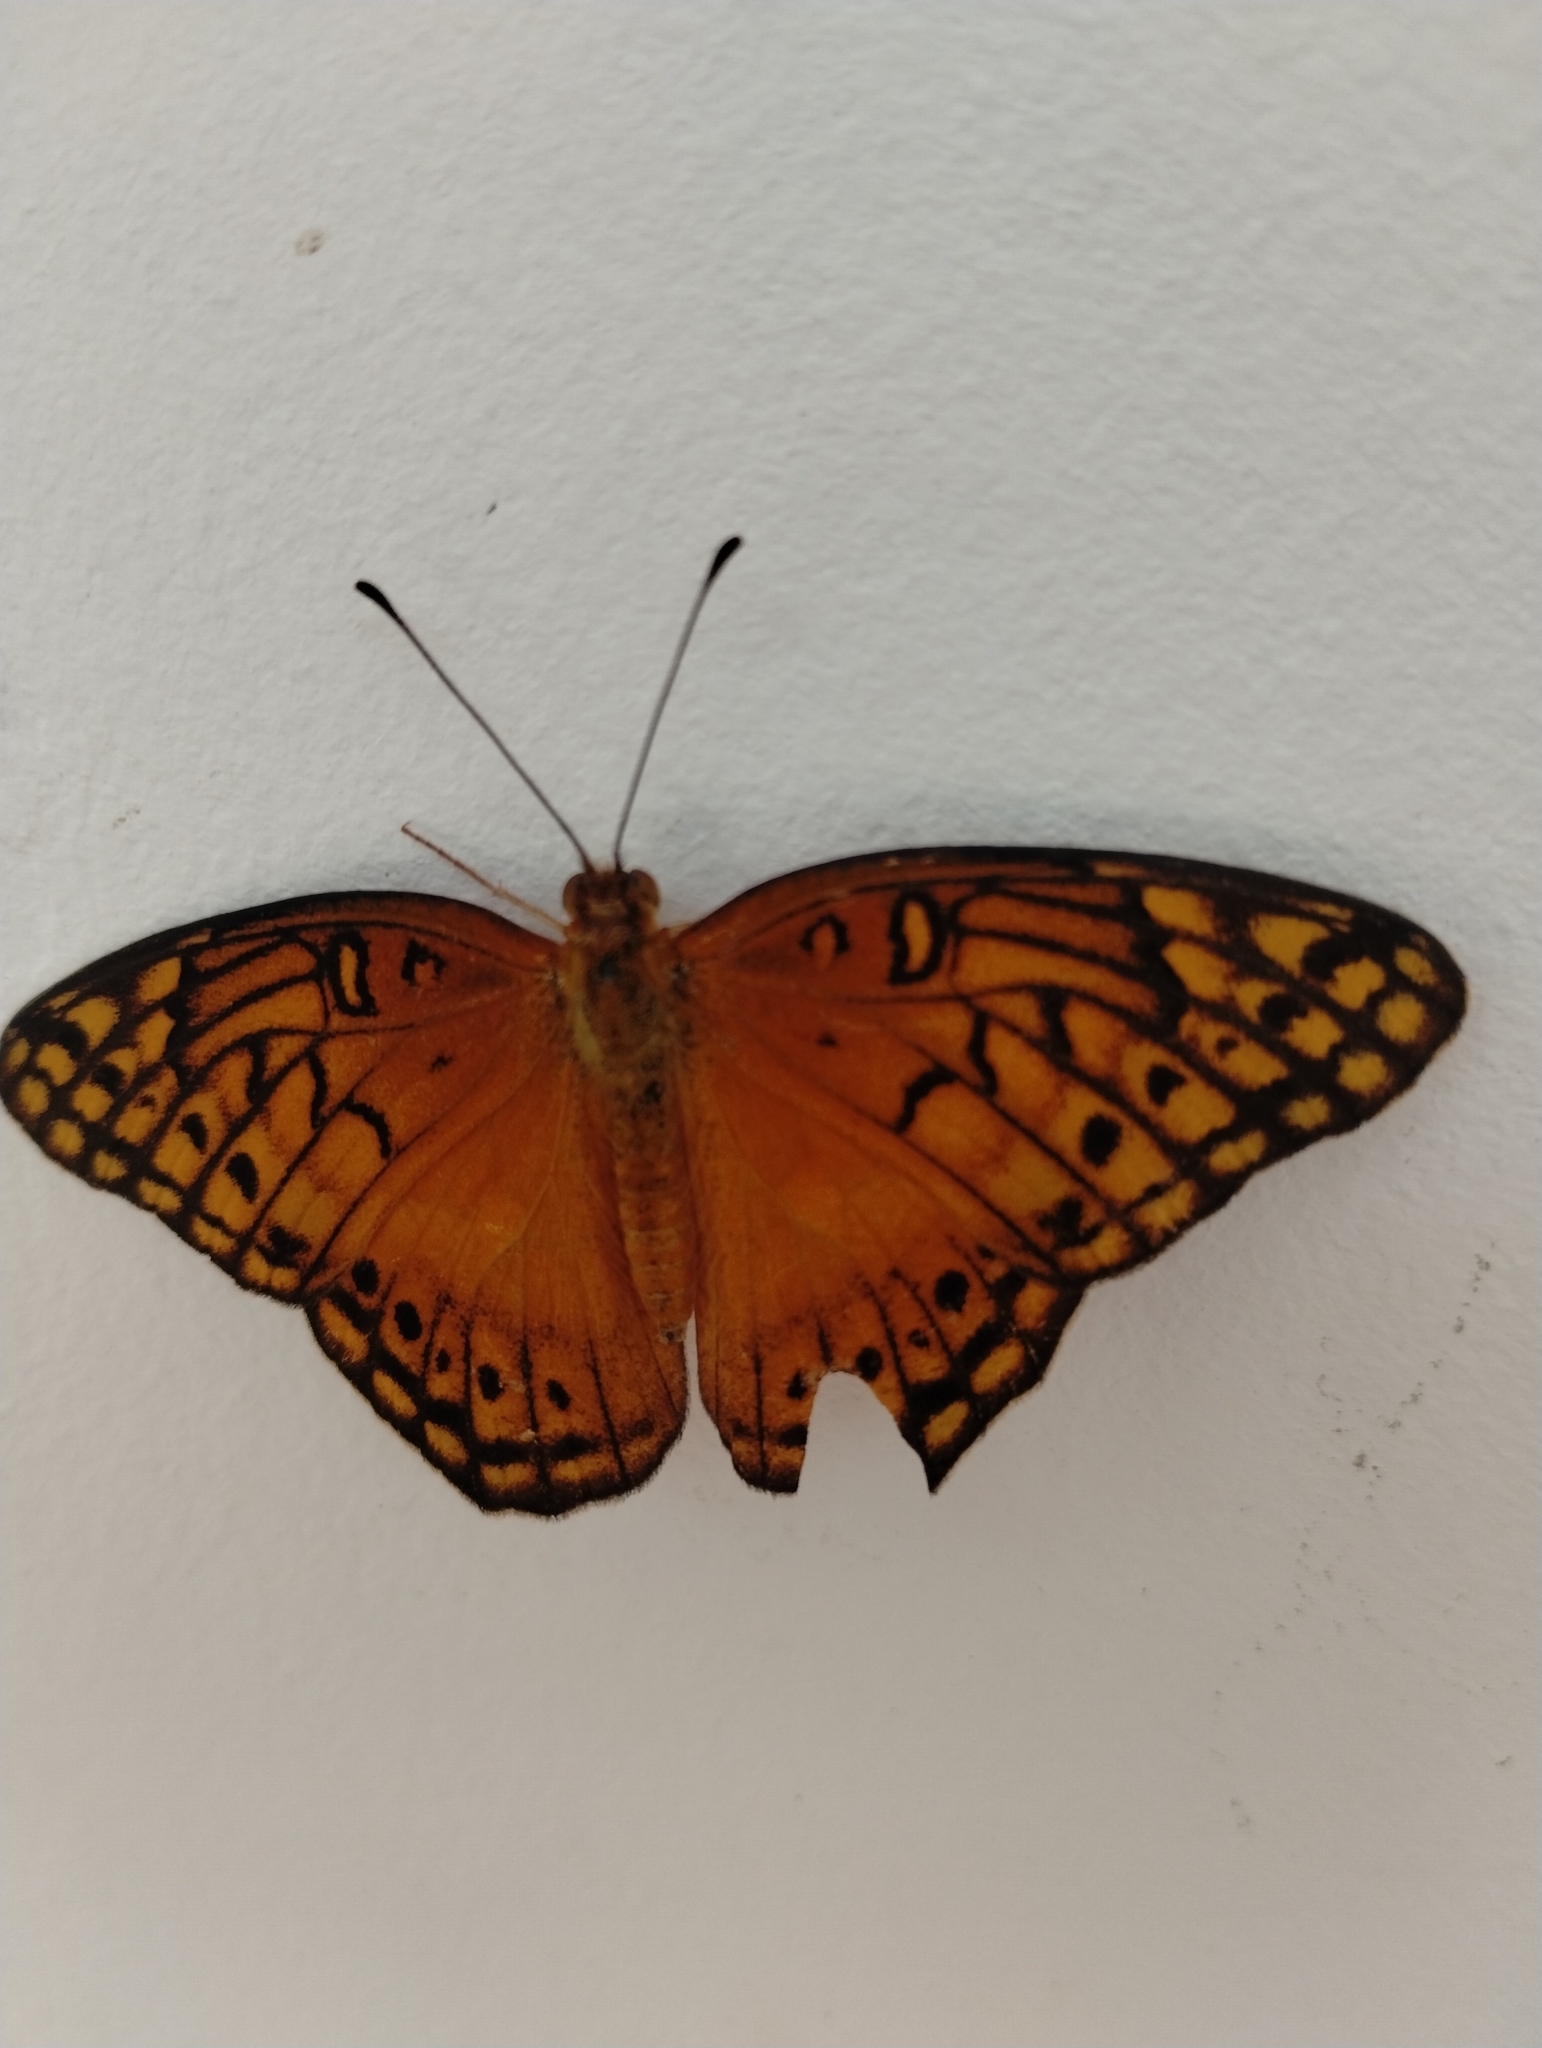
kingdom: Animalia
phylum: Arthropoda
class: Insecta
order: Lepidoptera
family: Nymphalidae
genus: Euptoieta
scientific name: Euptoieta hegesia
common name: Mexican fritillary
